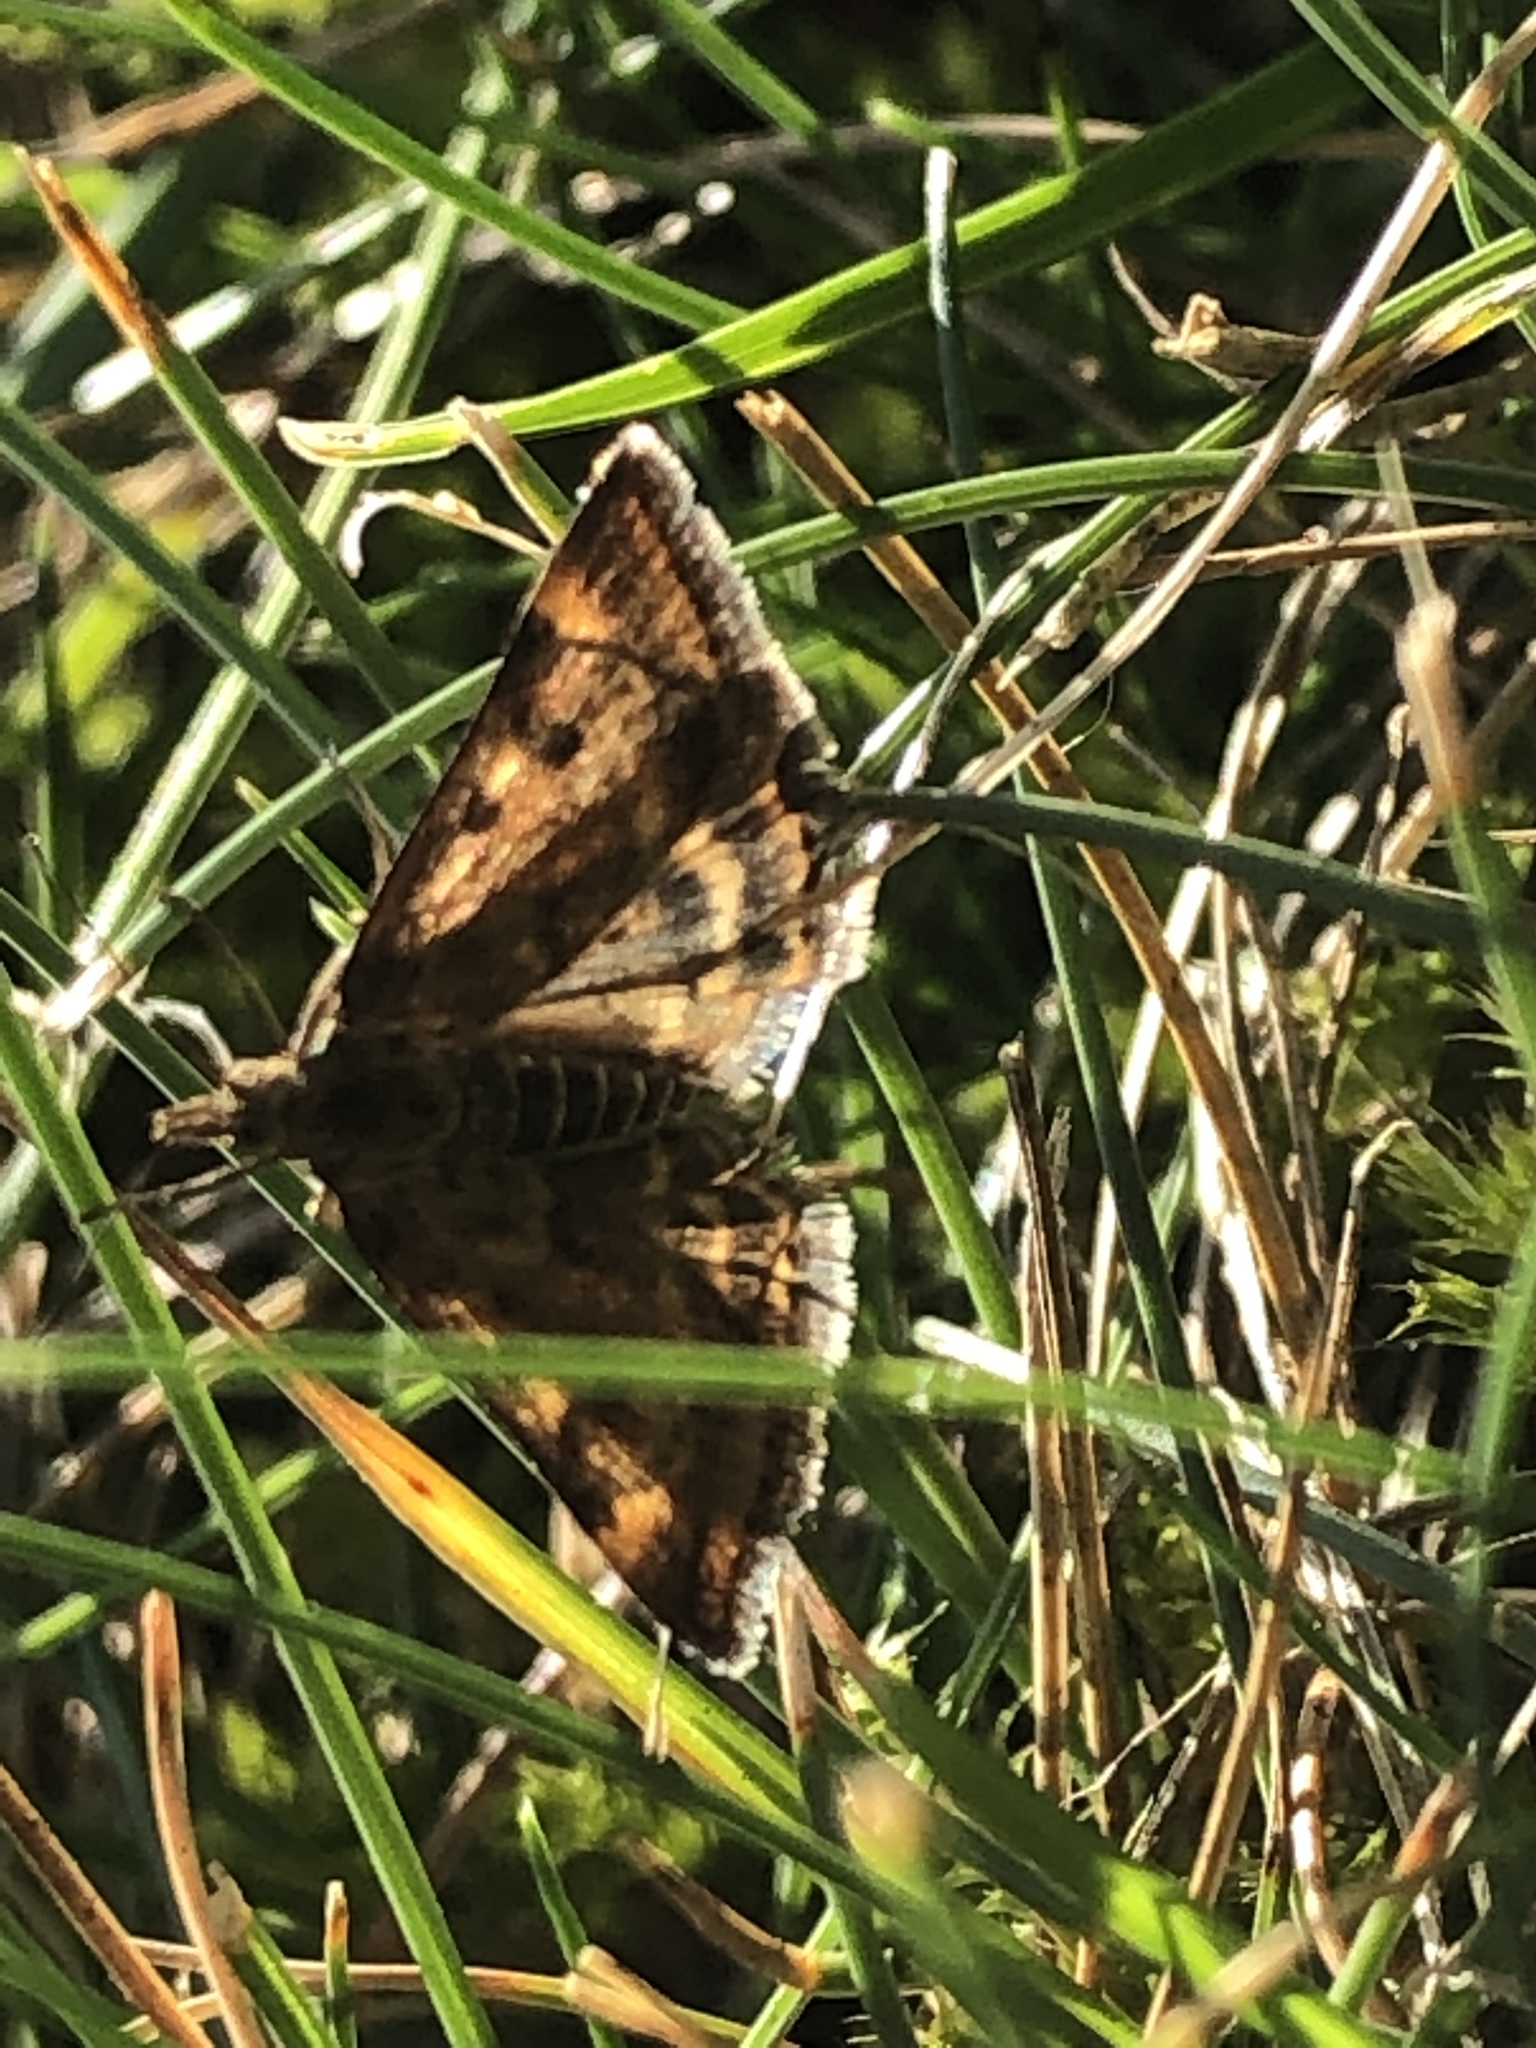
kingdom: Animalia
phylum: Arthropoda
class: Insecta
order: Lepidoptera
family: Crambidae
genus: Pyrausta
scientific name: Pyrausta despicata
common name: Straw-barred pearl
